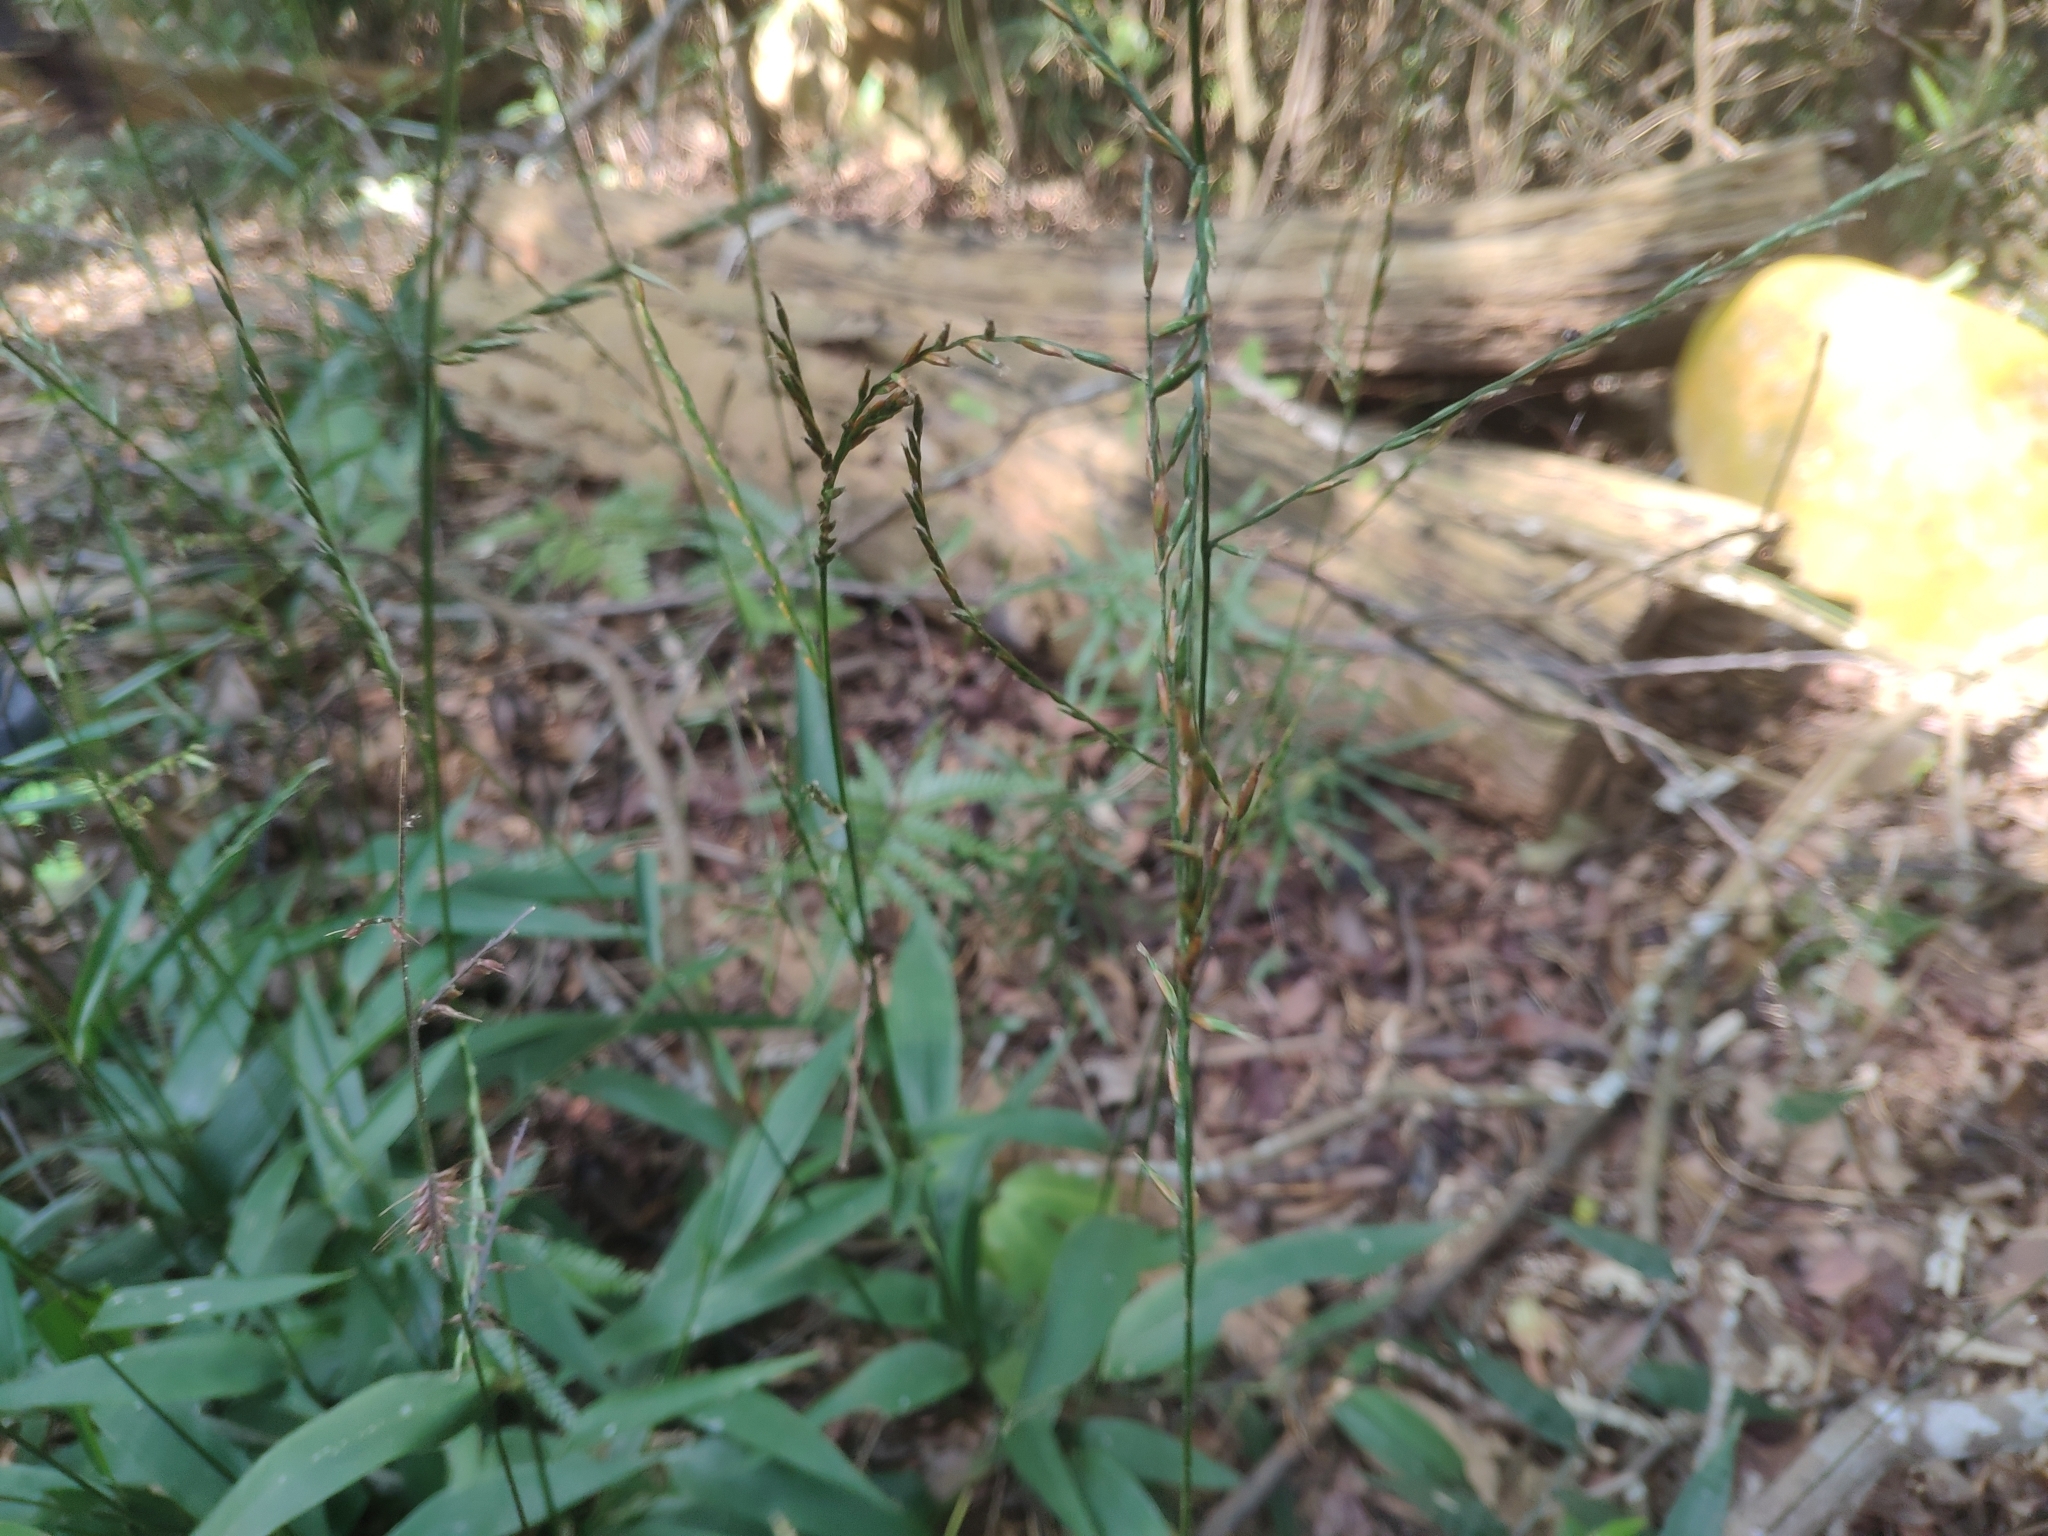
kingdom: Plantae
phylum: Tracheophyta
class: Liliopsida
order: Poales
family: Poaceae
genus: Lophatherum
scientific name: Lophatherum gracile
